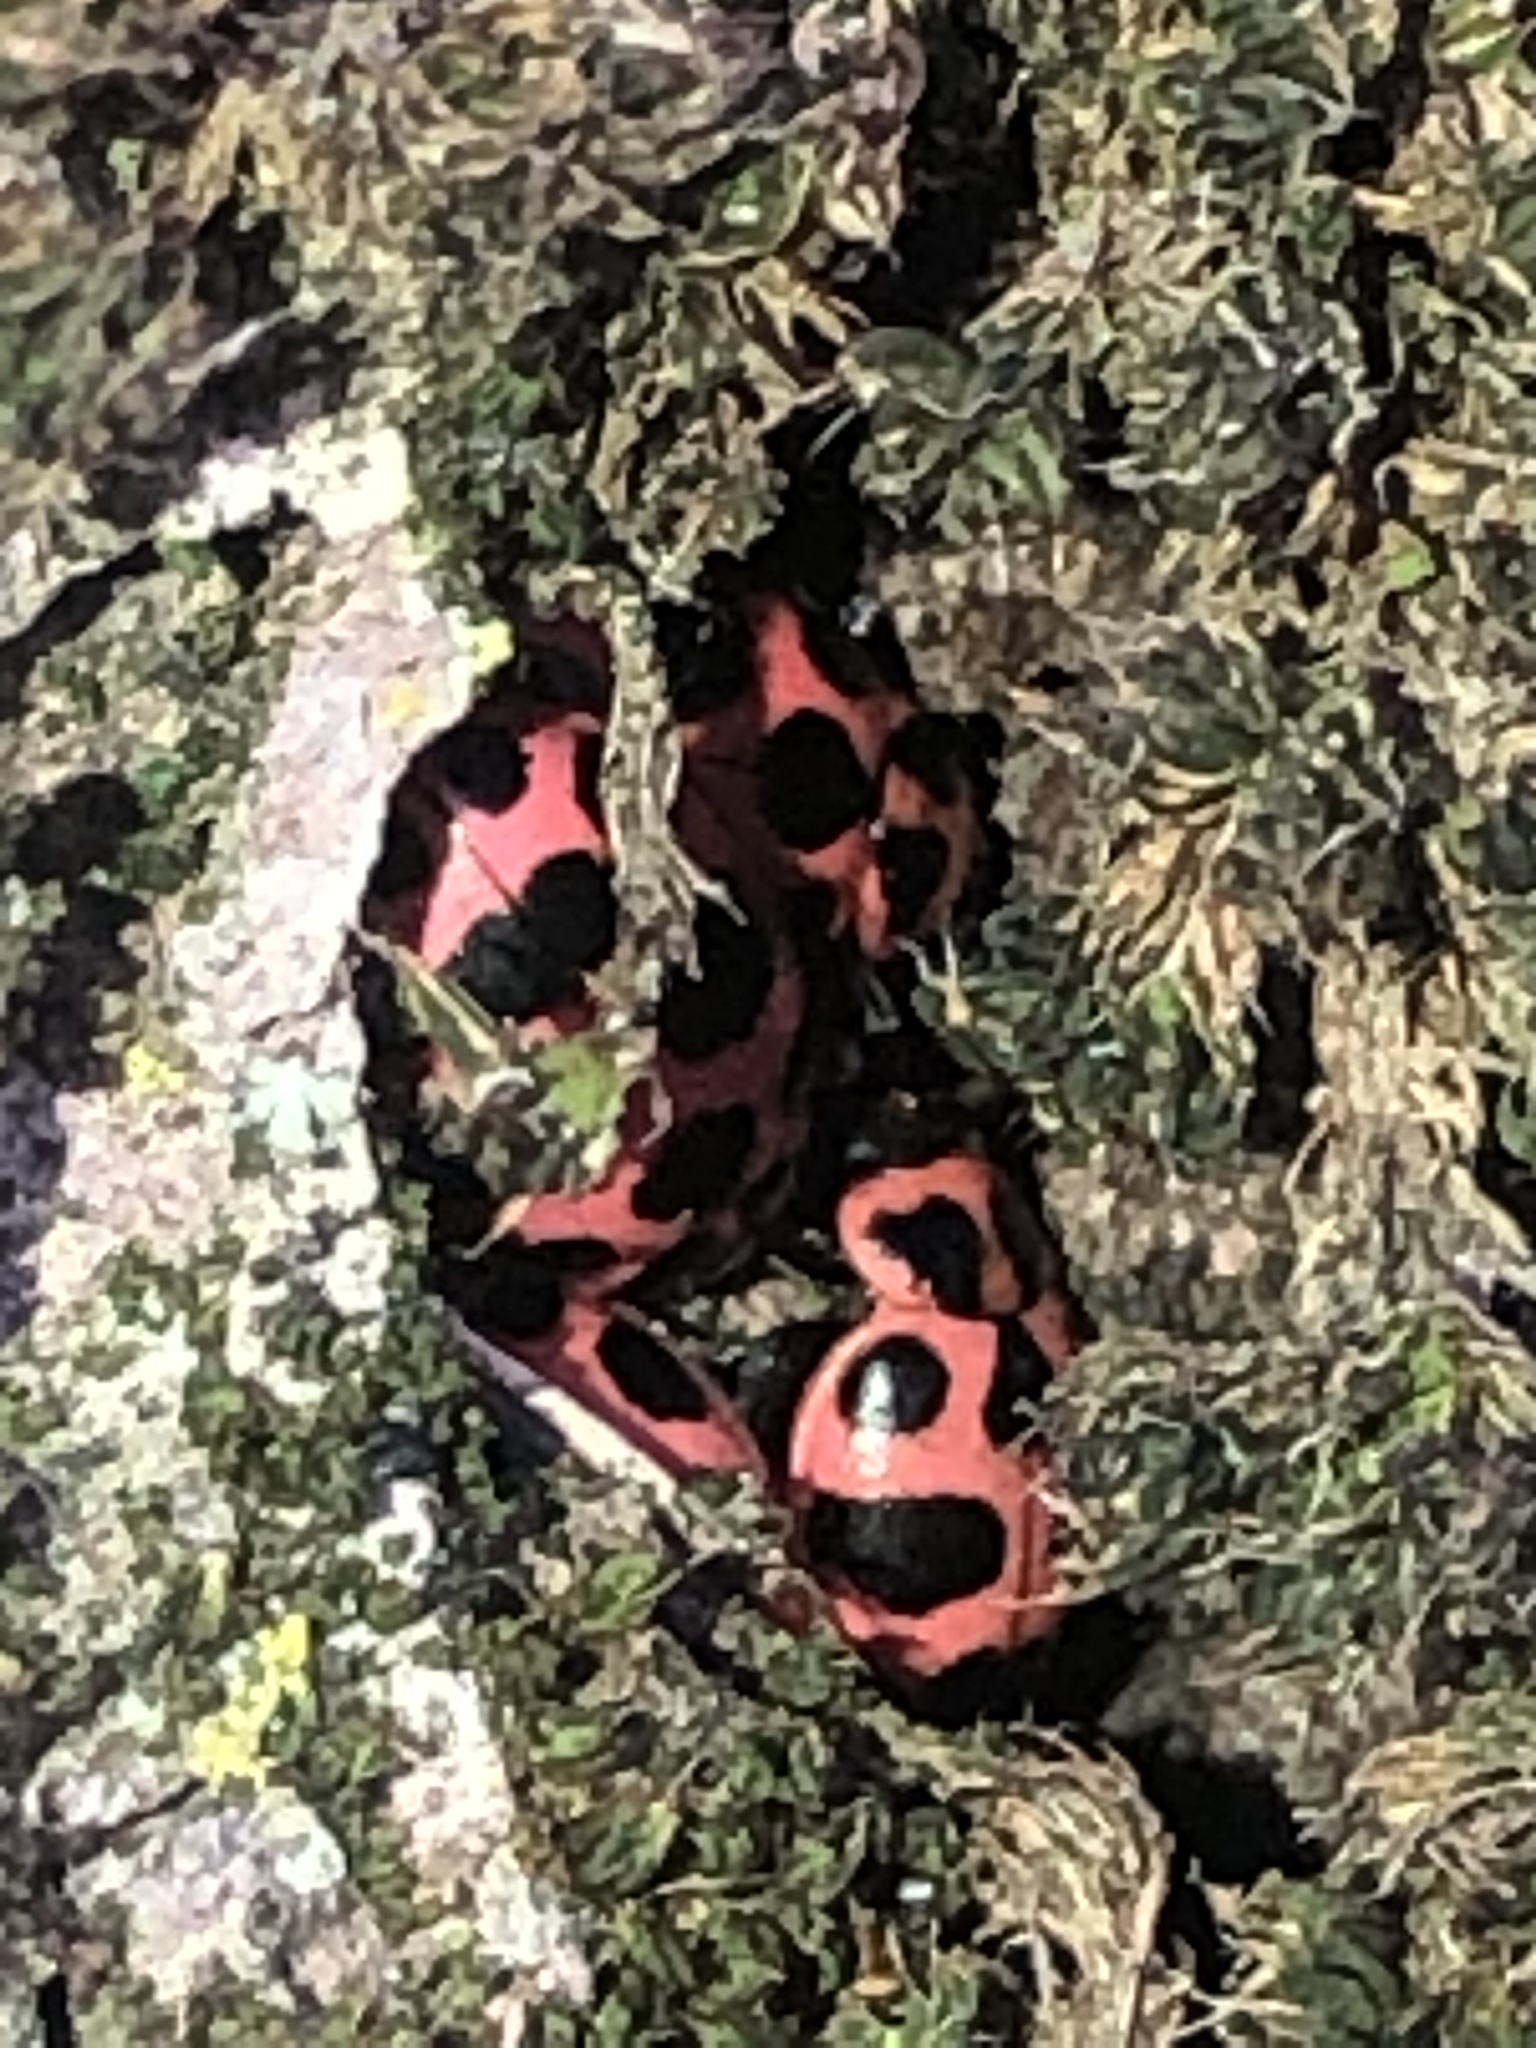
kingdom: Animalia
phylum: Arthropoda
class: Insecta
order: Coleoptera
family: Coccinellidae
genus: Coleomegilla
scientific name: Coleomegilla maculata
